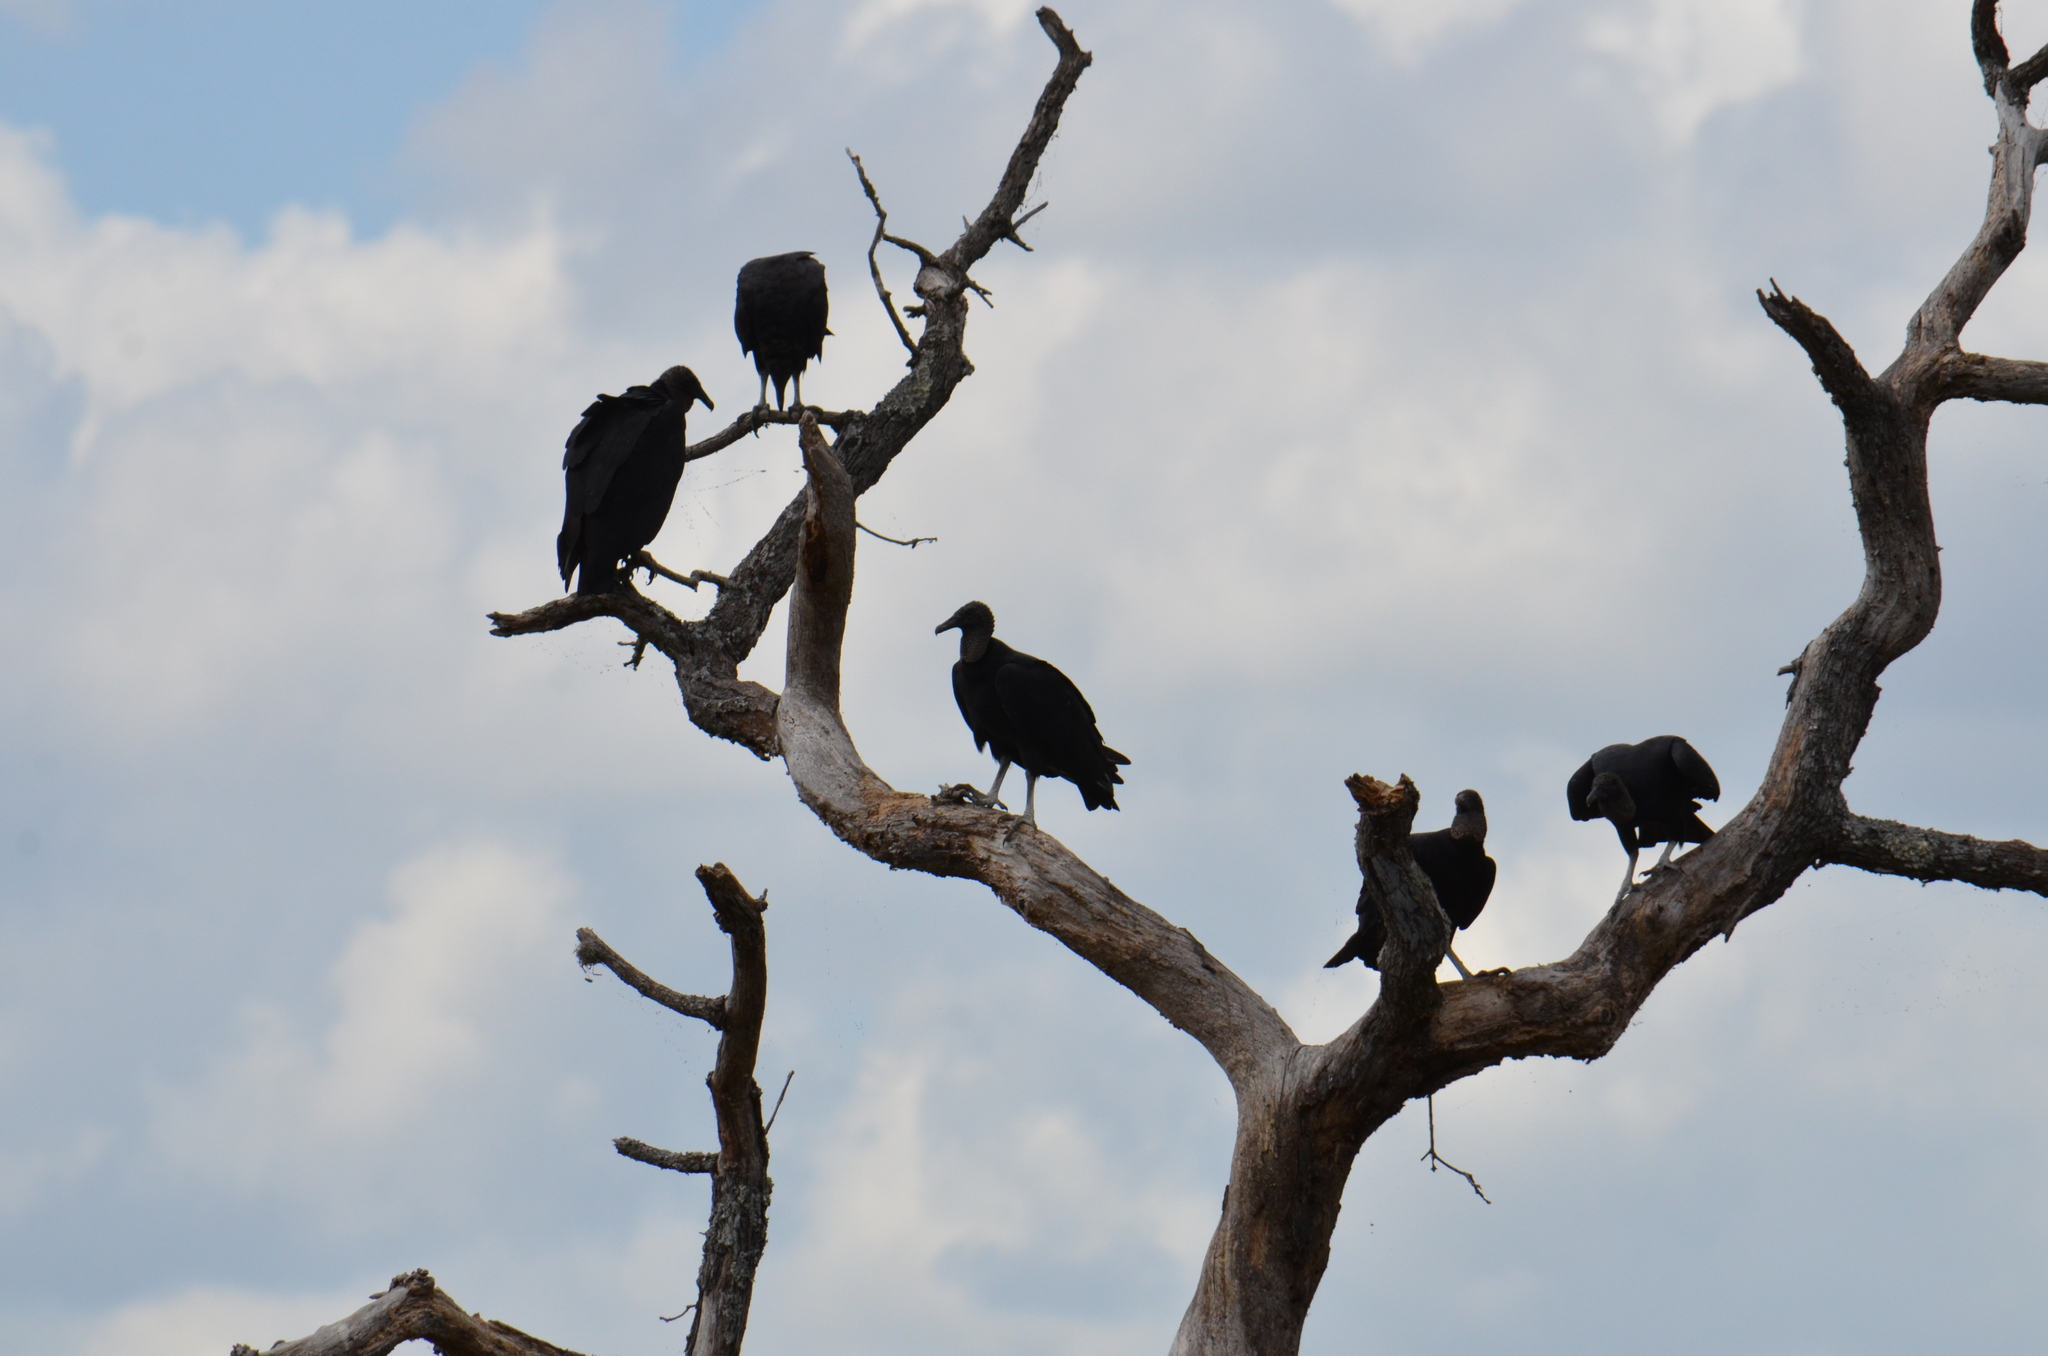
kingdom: Animalia
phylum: Chordata
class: Aves
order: Accipitriformes
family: Cathartidae
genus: Coragyps
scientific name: Coragyps atratus
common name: Black vulture
